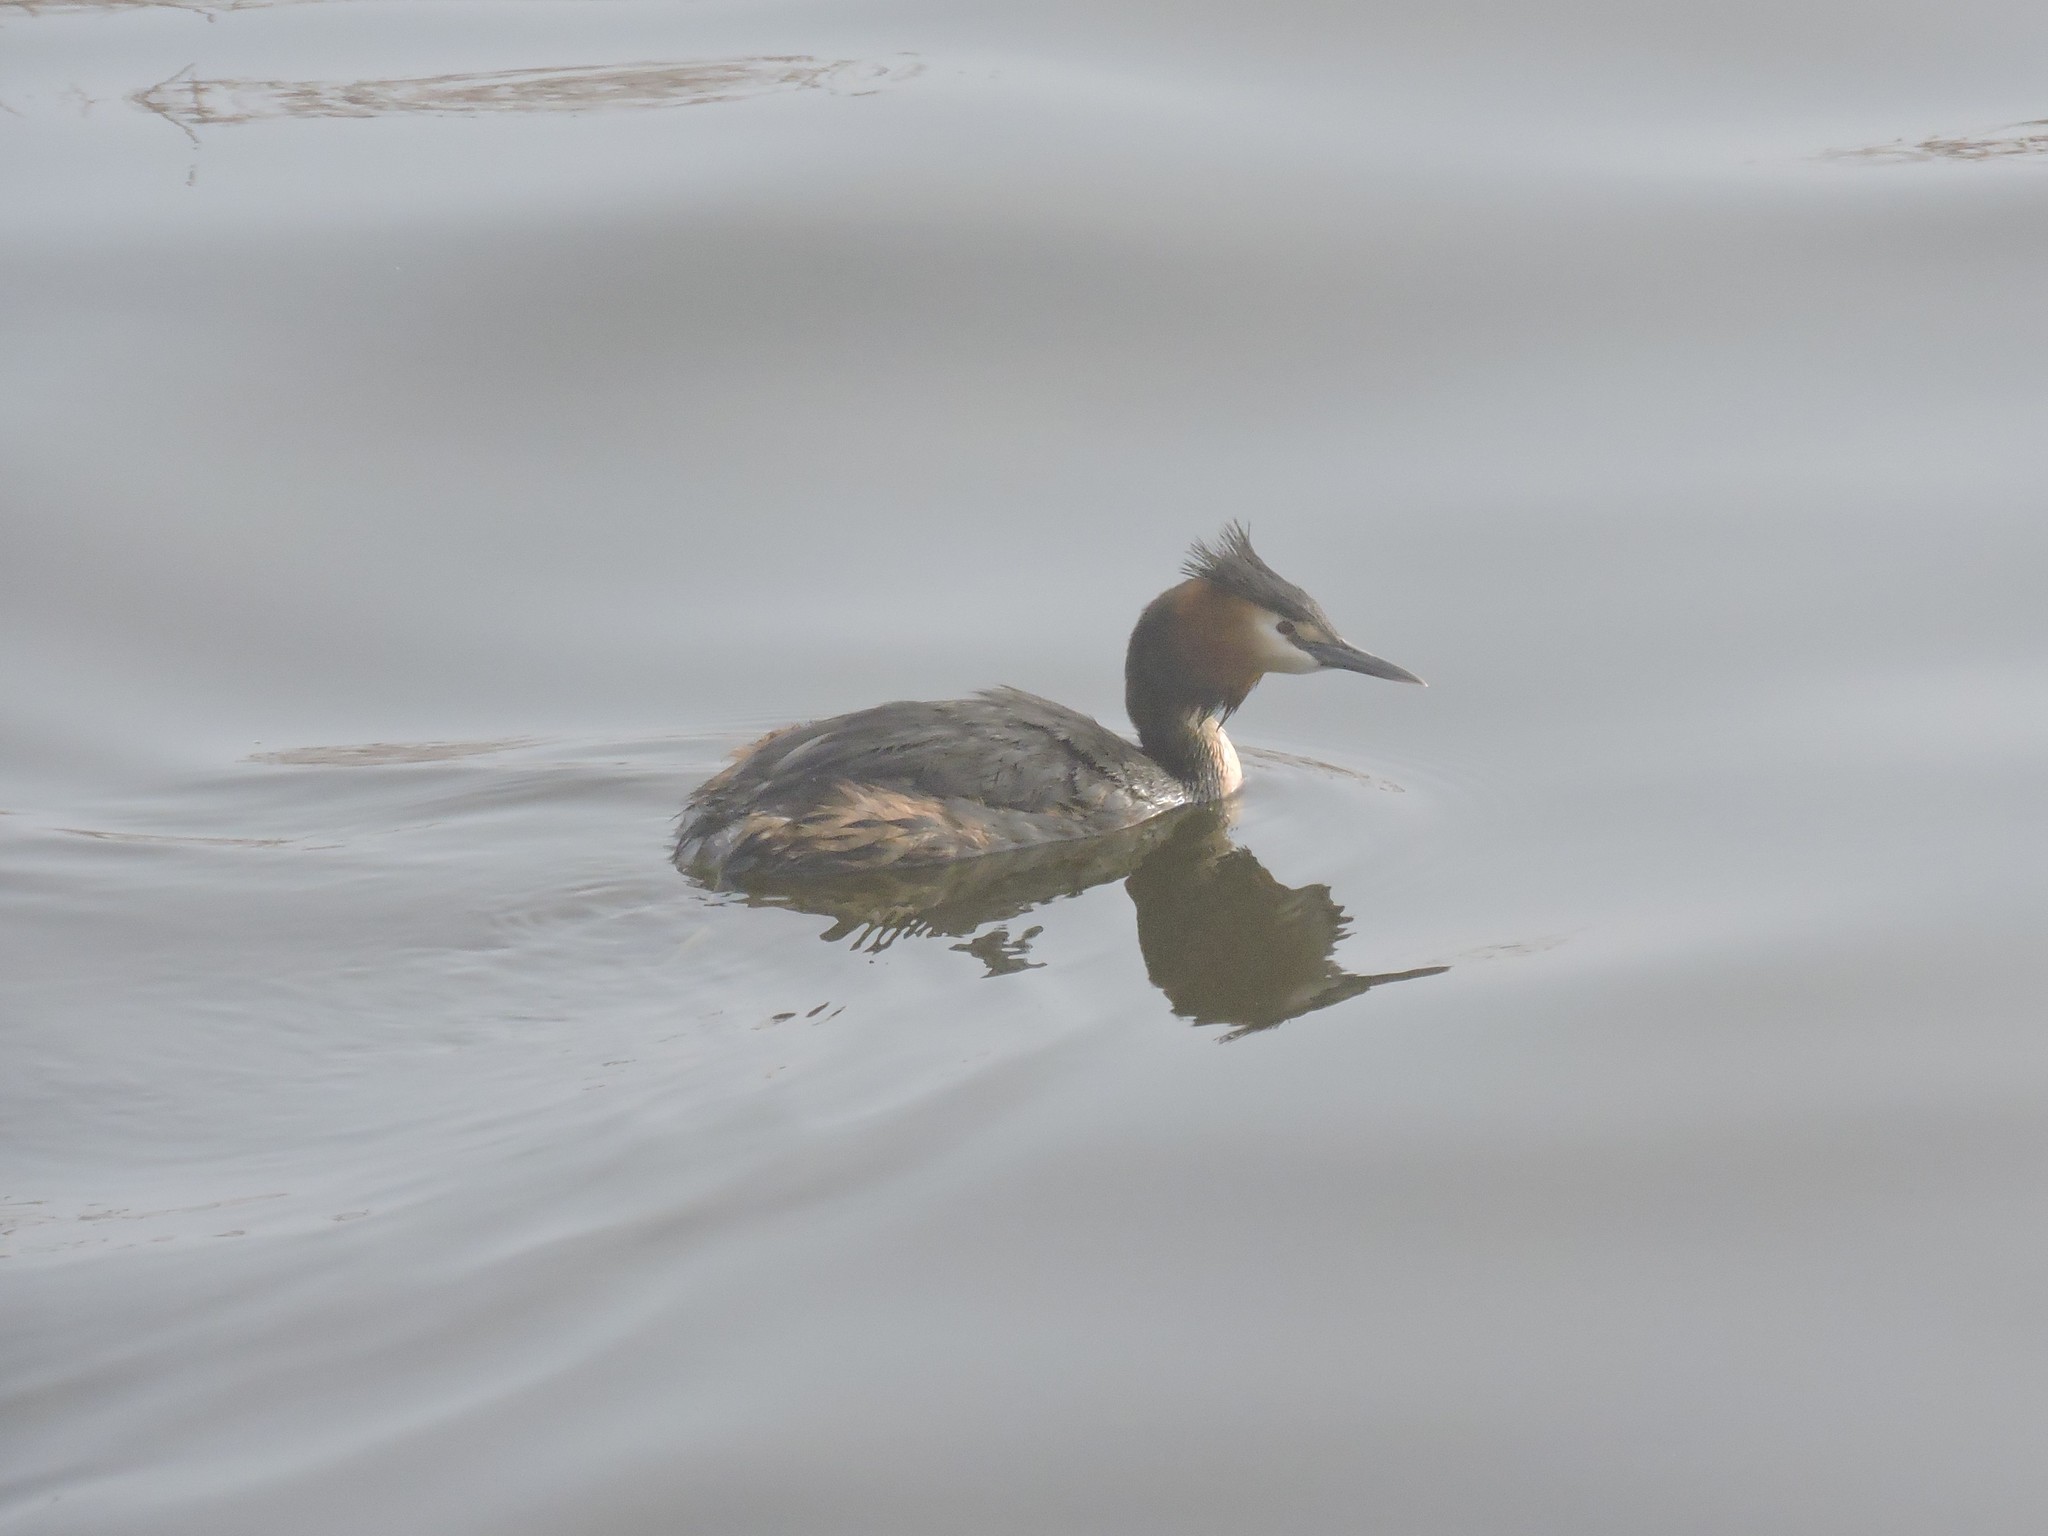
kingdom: Animalia
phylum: Chordata
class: Aves
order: Podicipediformes
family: Podicipedidae
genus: Podiceps
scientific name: Podiceps cristatus
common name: Great crested grebe
